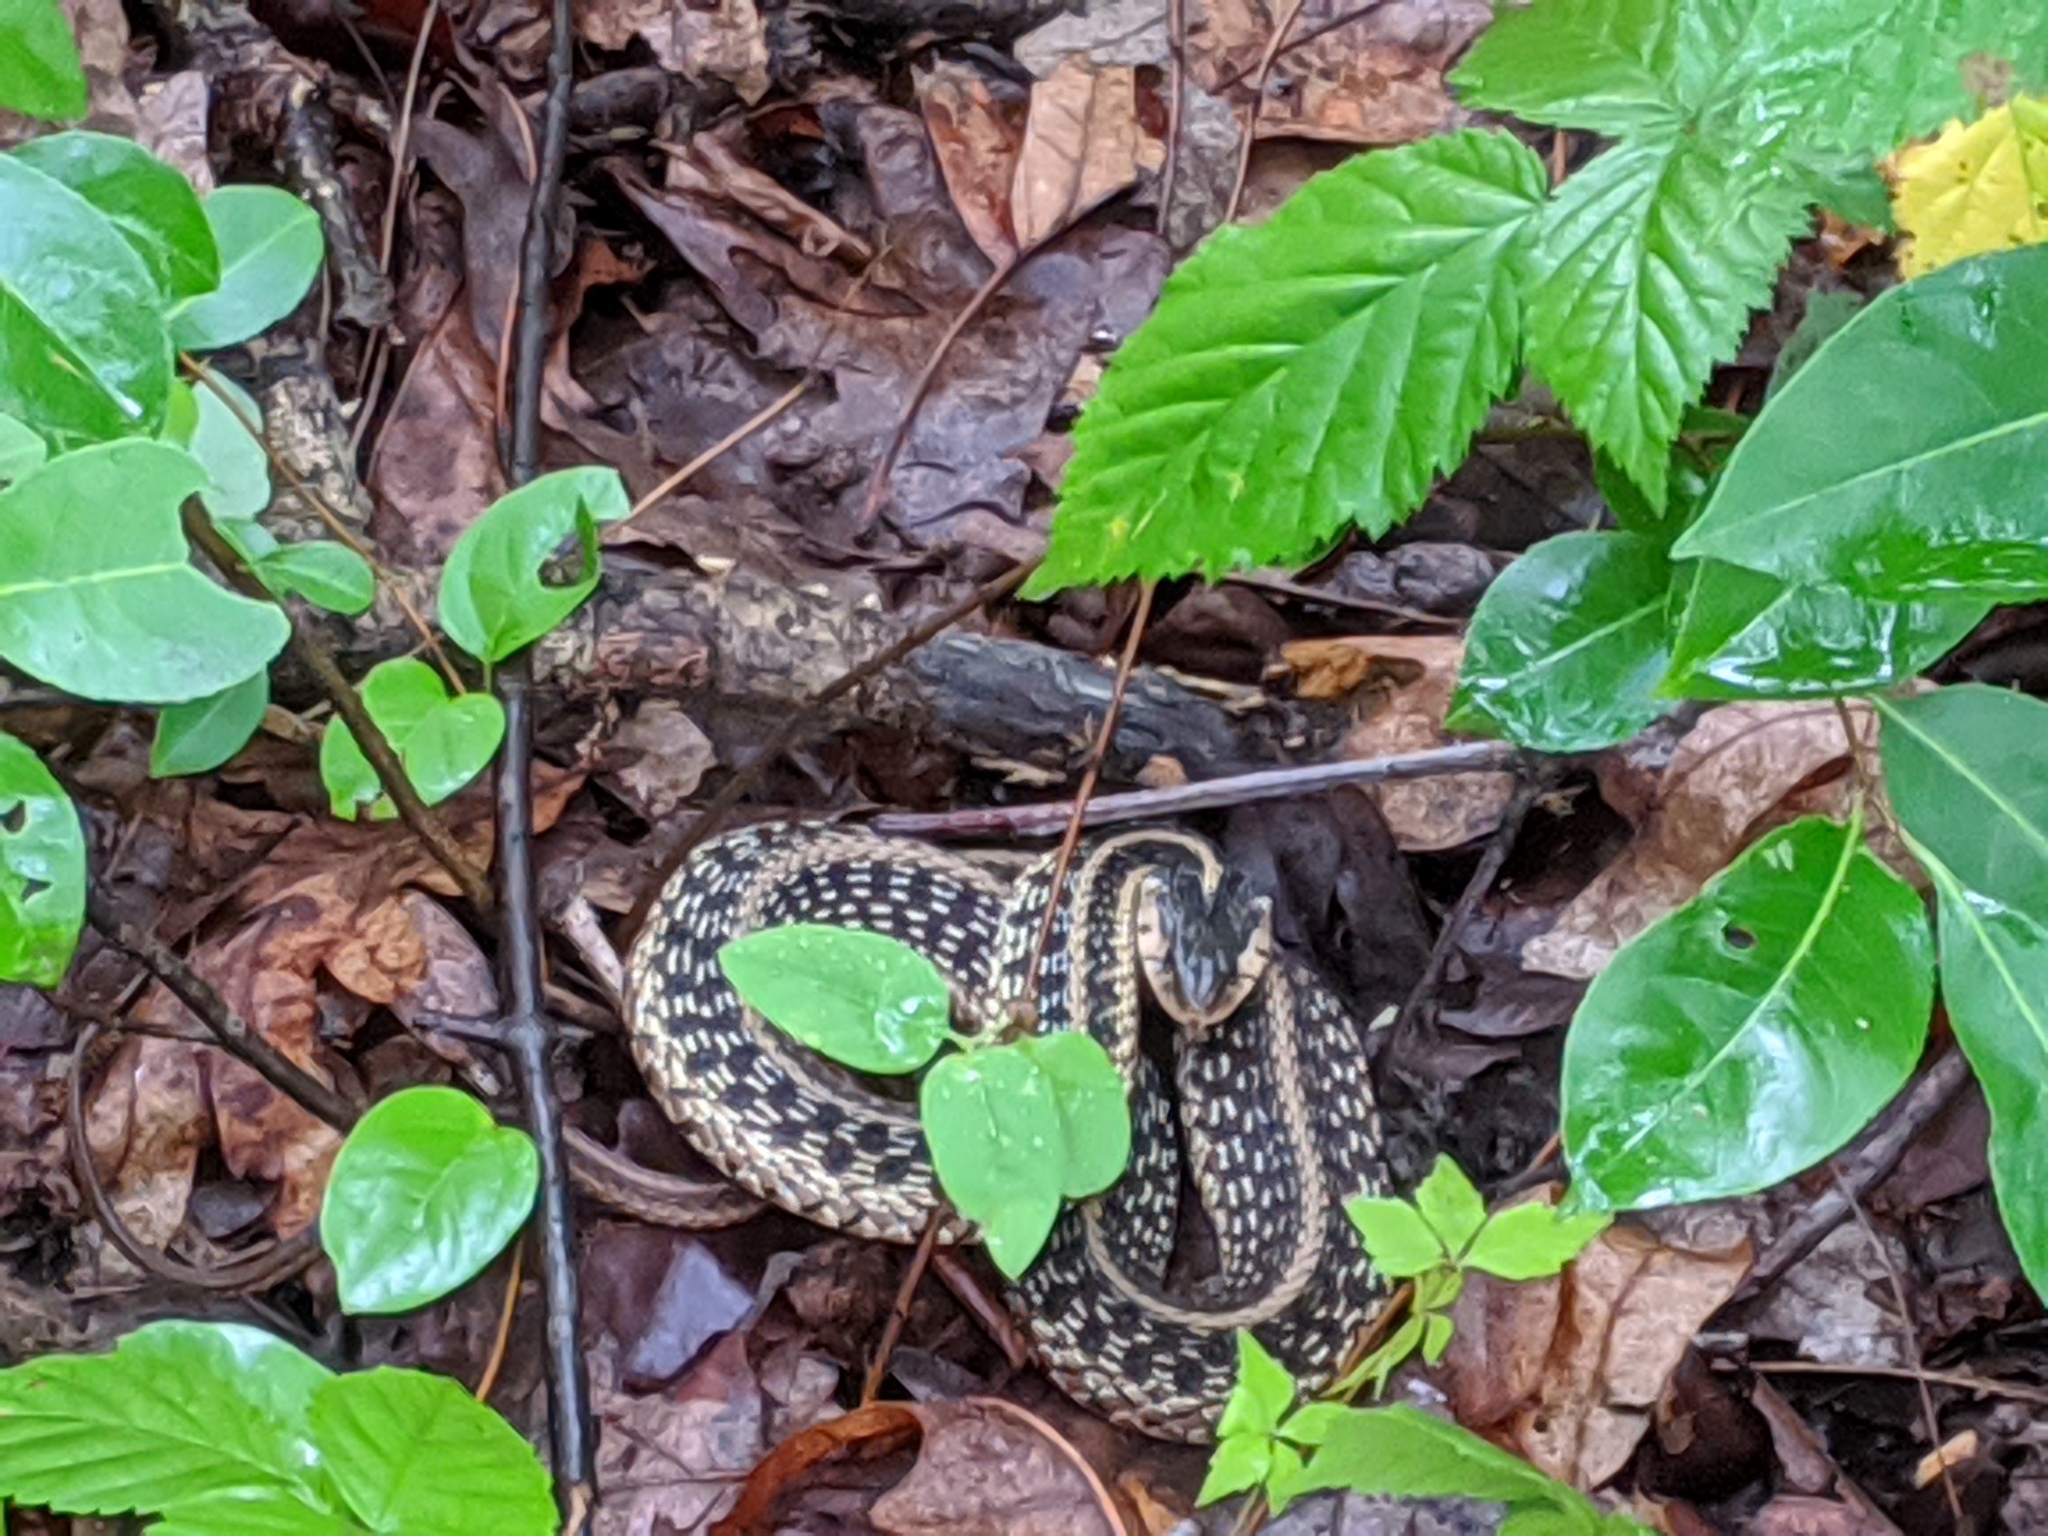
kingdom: Animalia
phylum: Chordata
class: Squamata
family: Colubridae
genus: Thamnophis
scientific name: Thamnophis sirtalis
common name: Common garter snake
